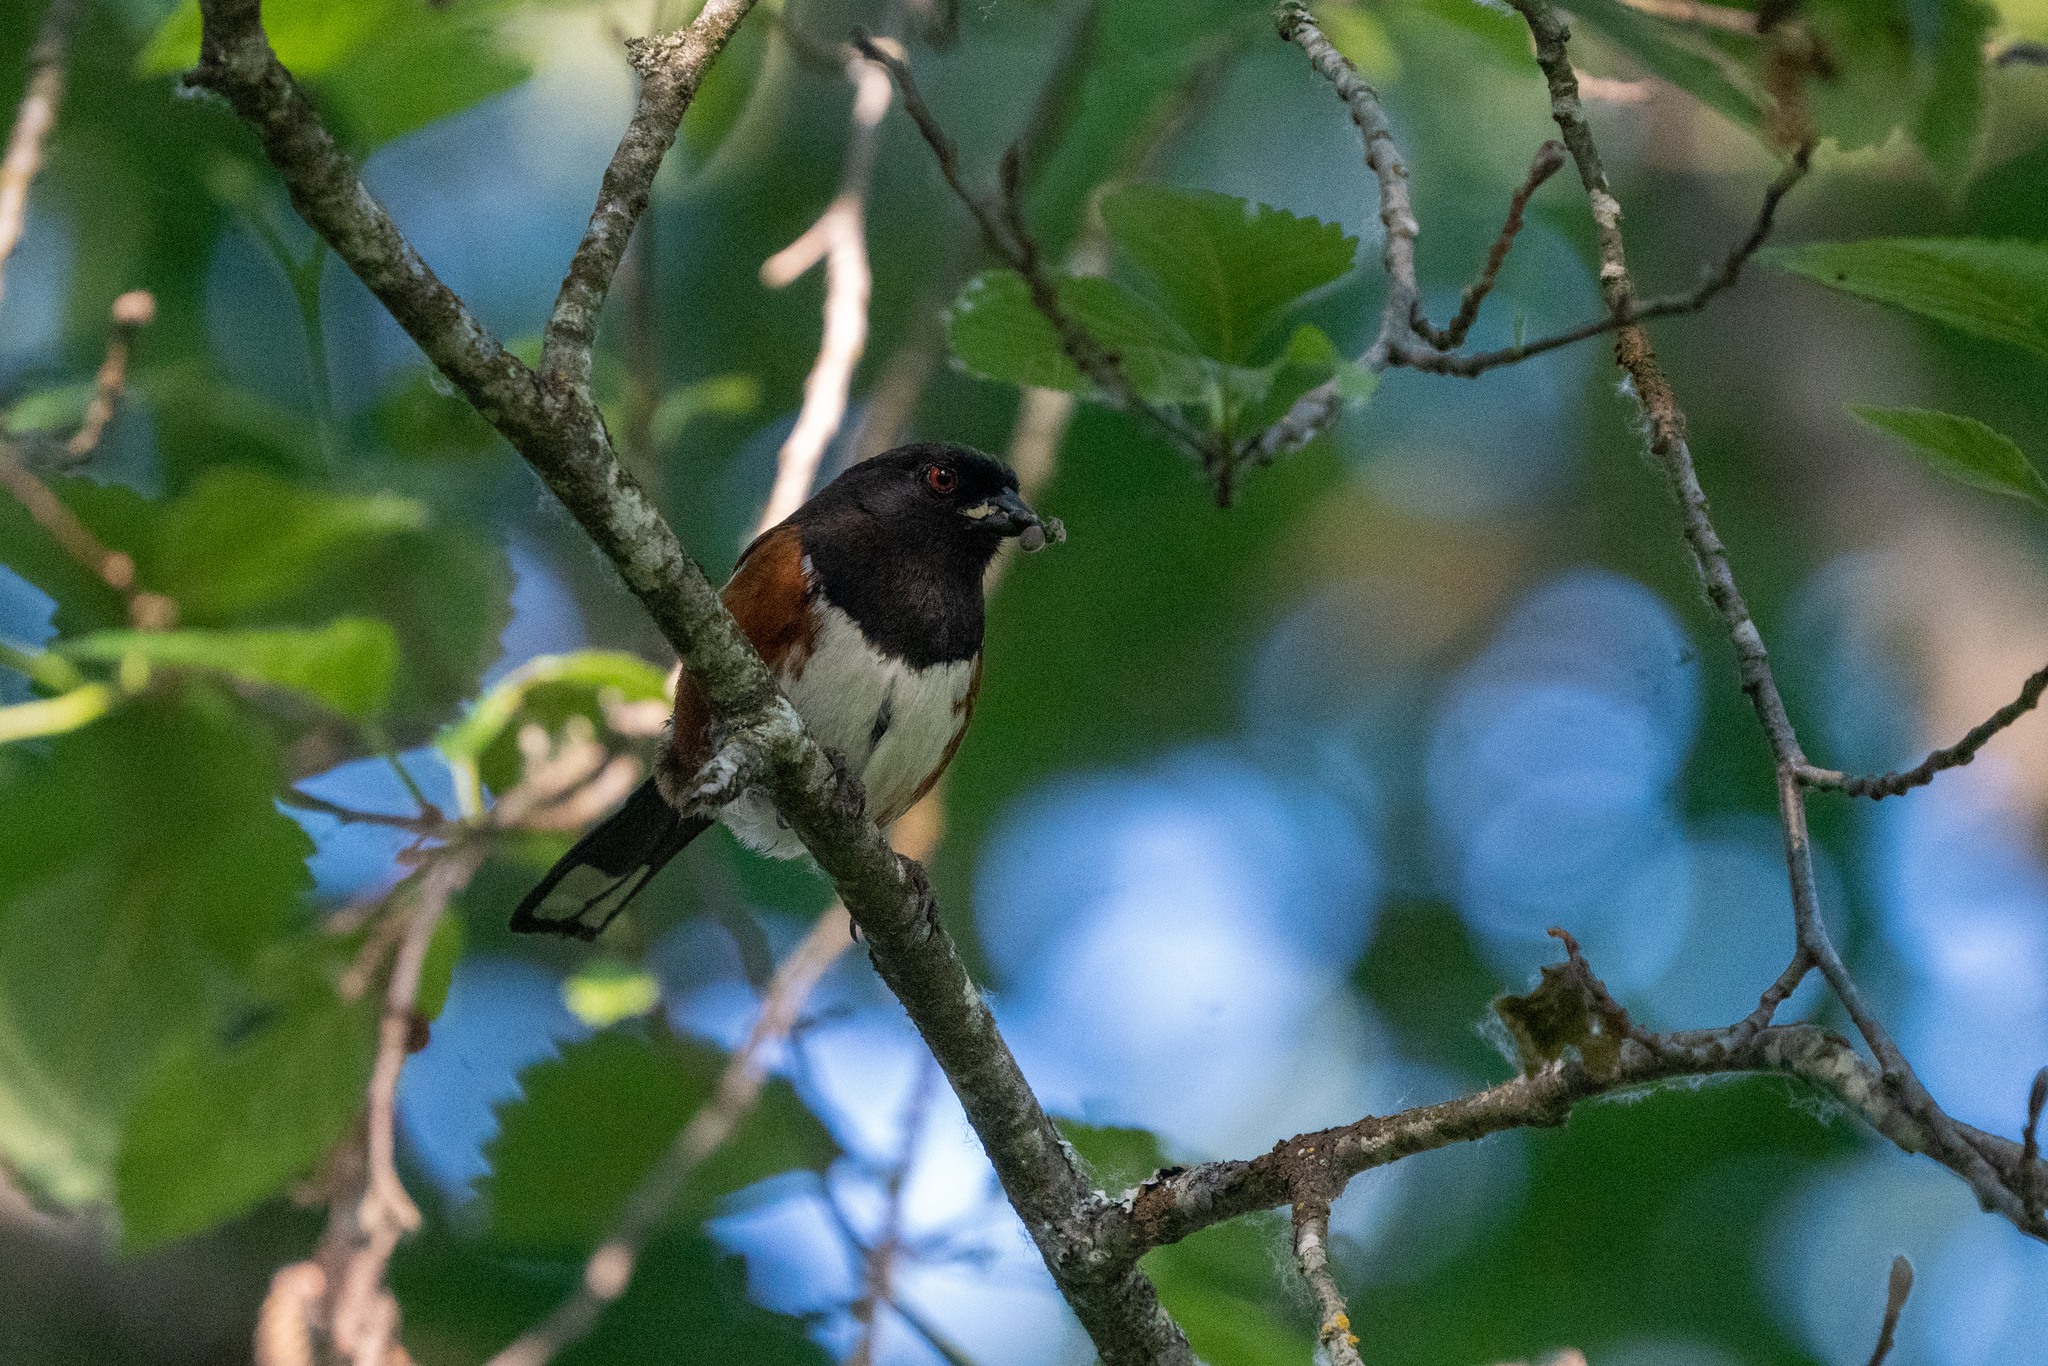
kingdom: Animalia
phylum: Chordata
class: Aves
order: Passeriformes
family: Passerellidae
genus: Pipilo
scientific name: Pipilo maculatus
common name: Spotted towhee
